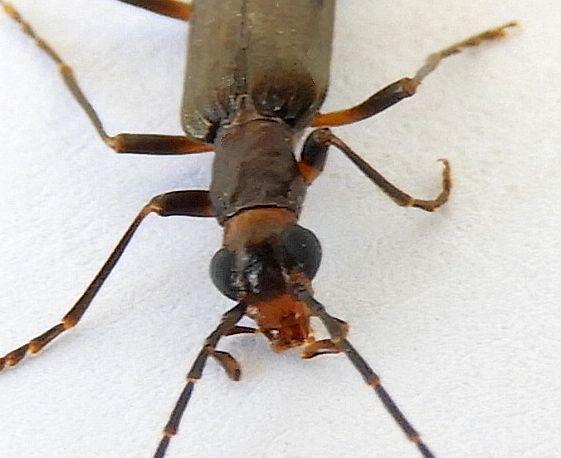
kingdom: Animalia
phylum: Arthropoda
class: Insecta
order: Coleoptera
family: Oedemeridae
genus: Vasaces
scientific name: Vasaces
